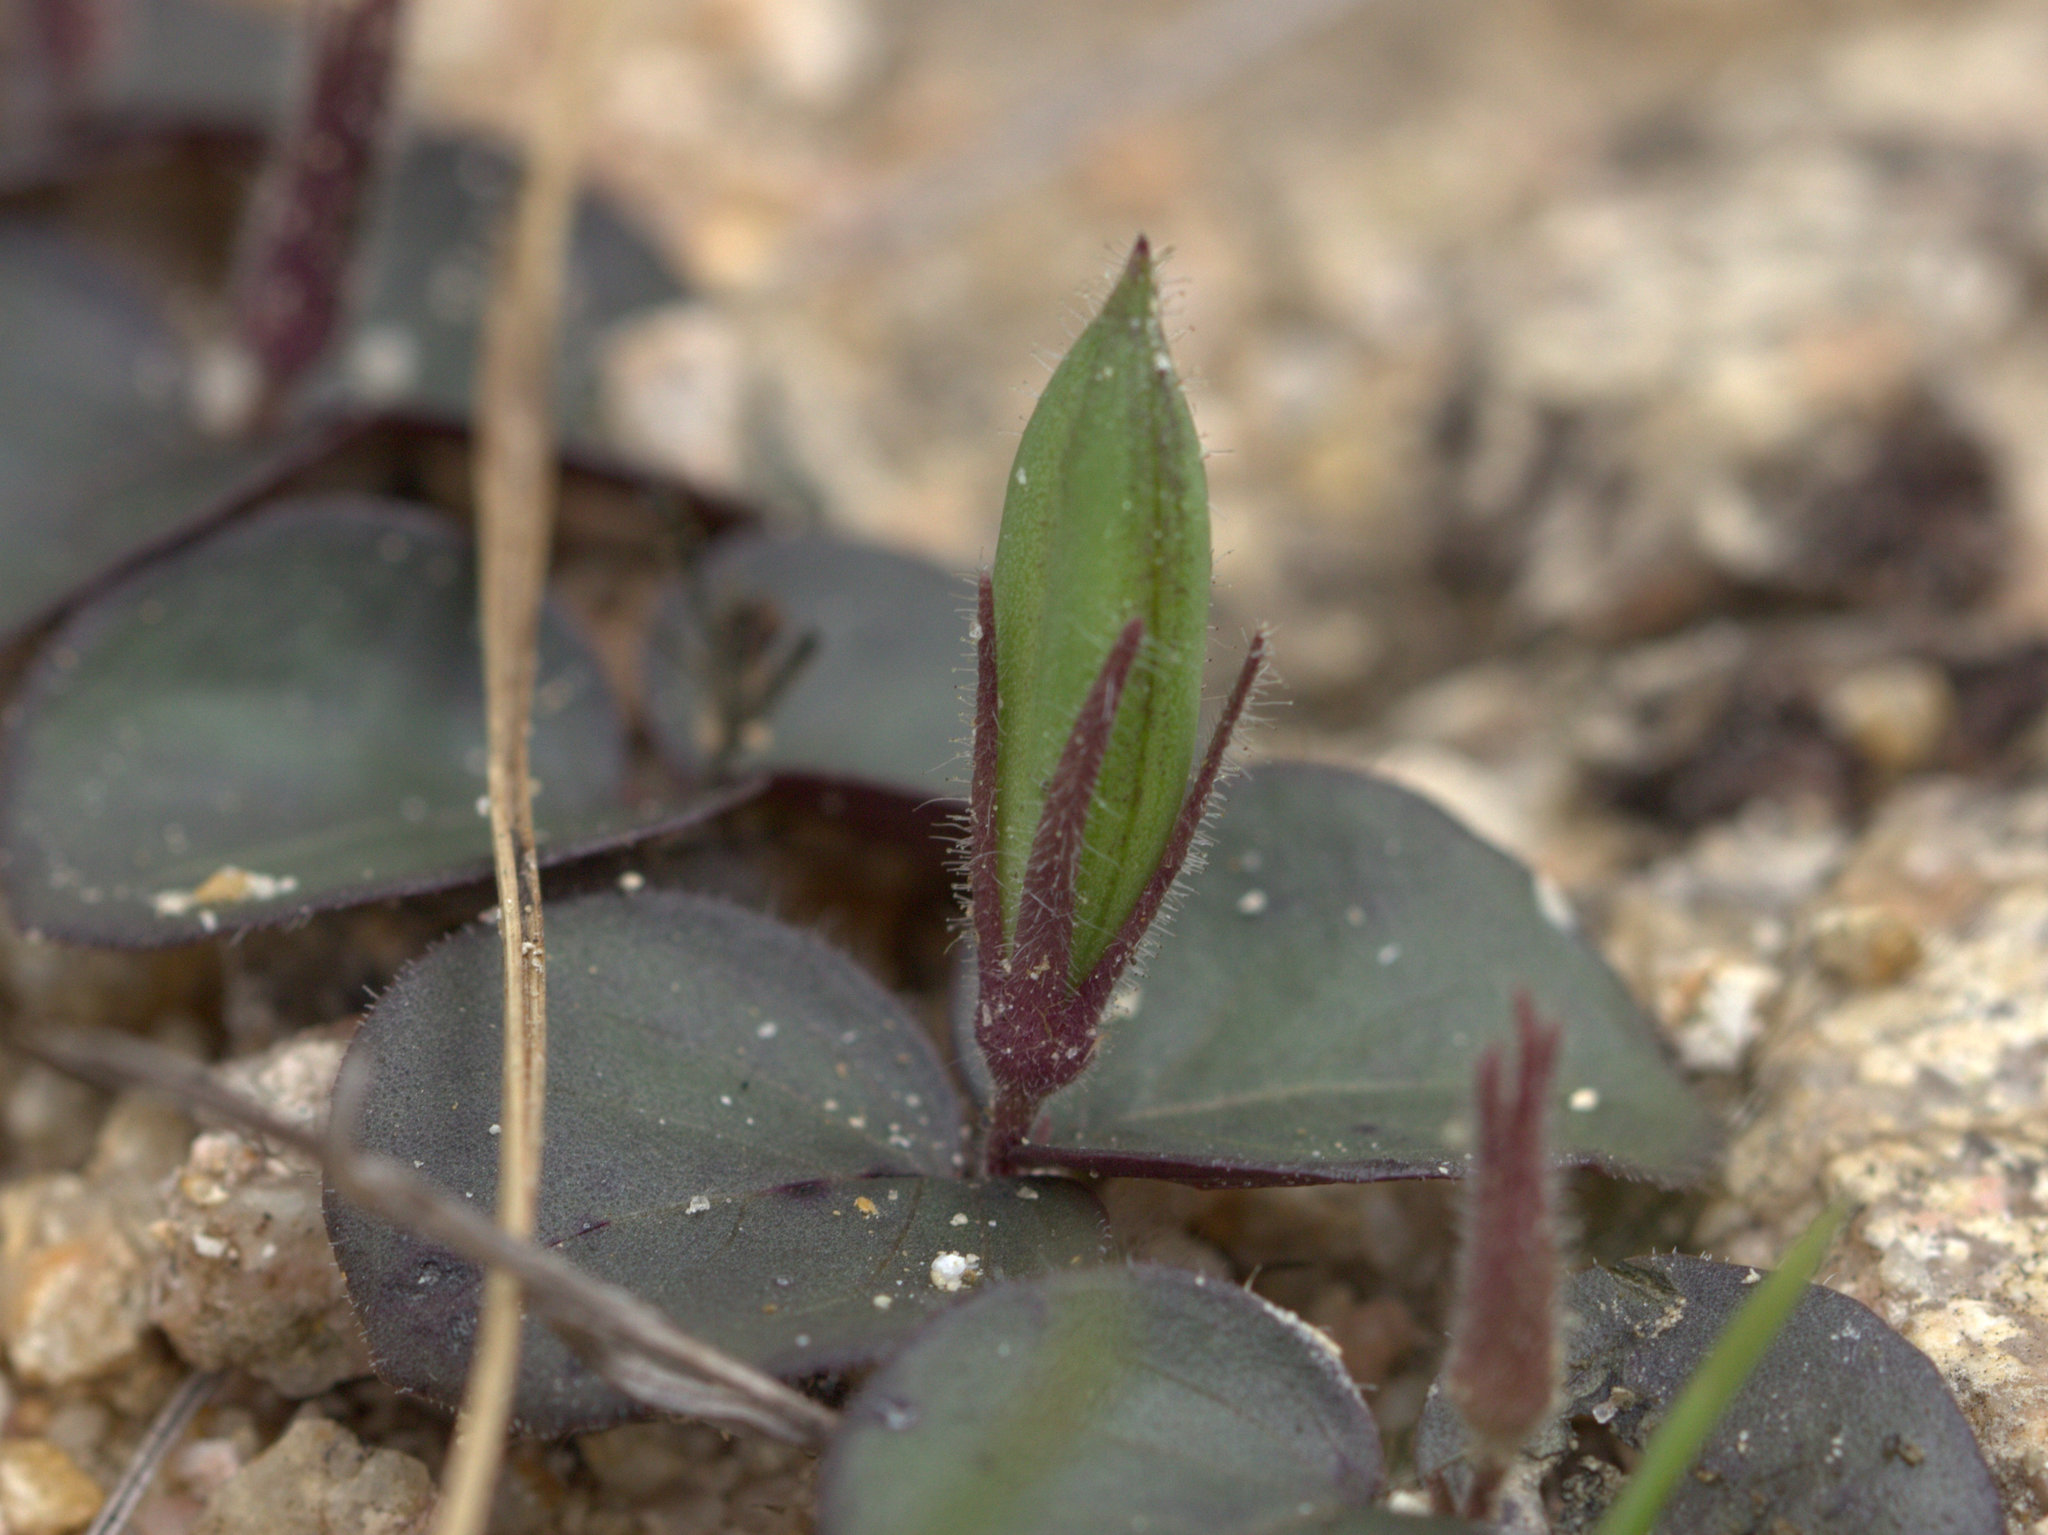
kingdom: Plantae
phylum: Tracheophyta
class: Magnoliopsida
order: Lamiales
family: Acanthaceae
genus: Andrographis
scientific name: Andrographis serpyllifolia
